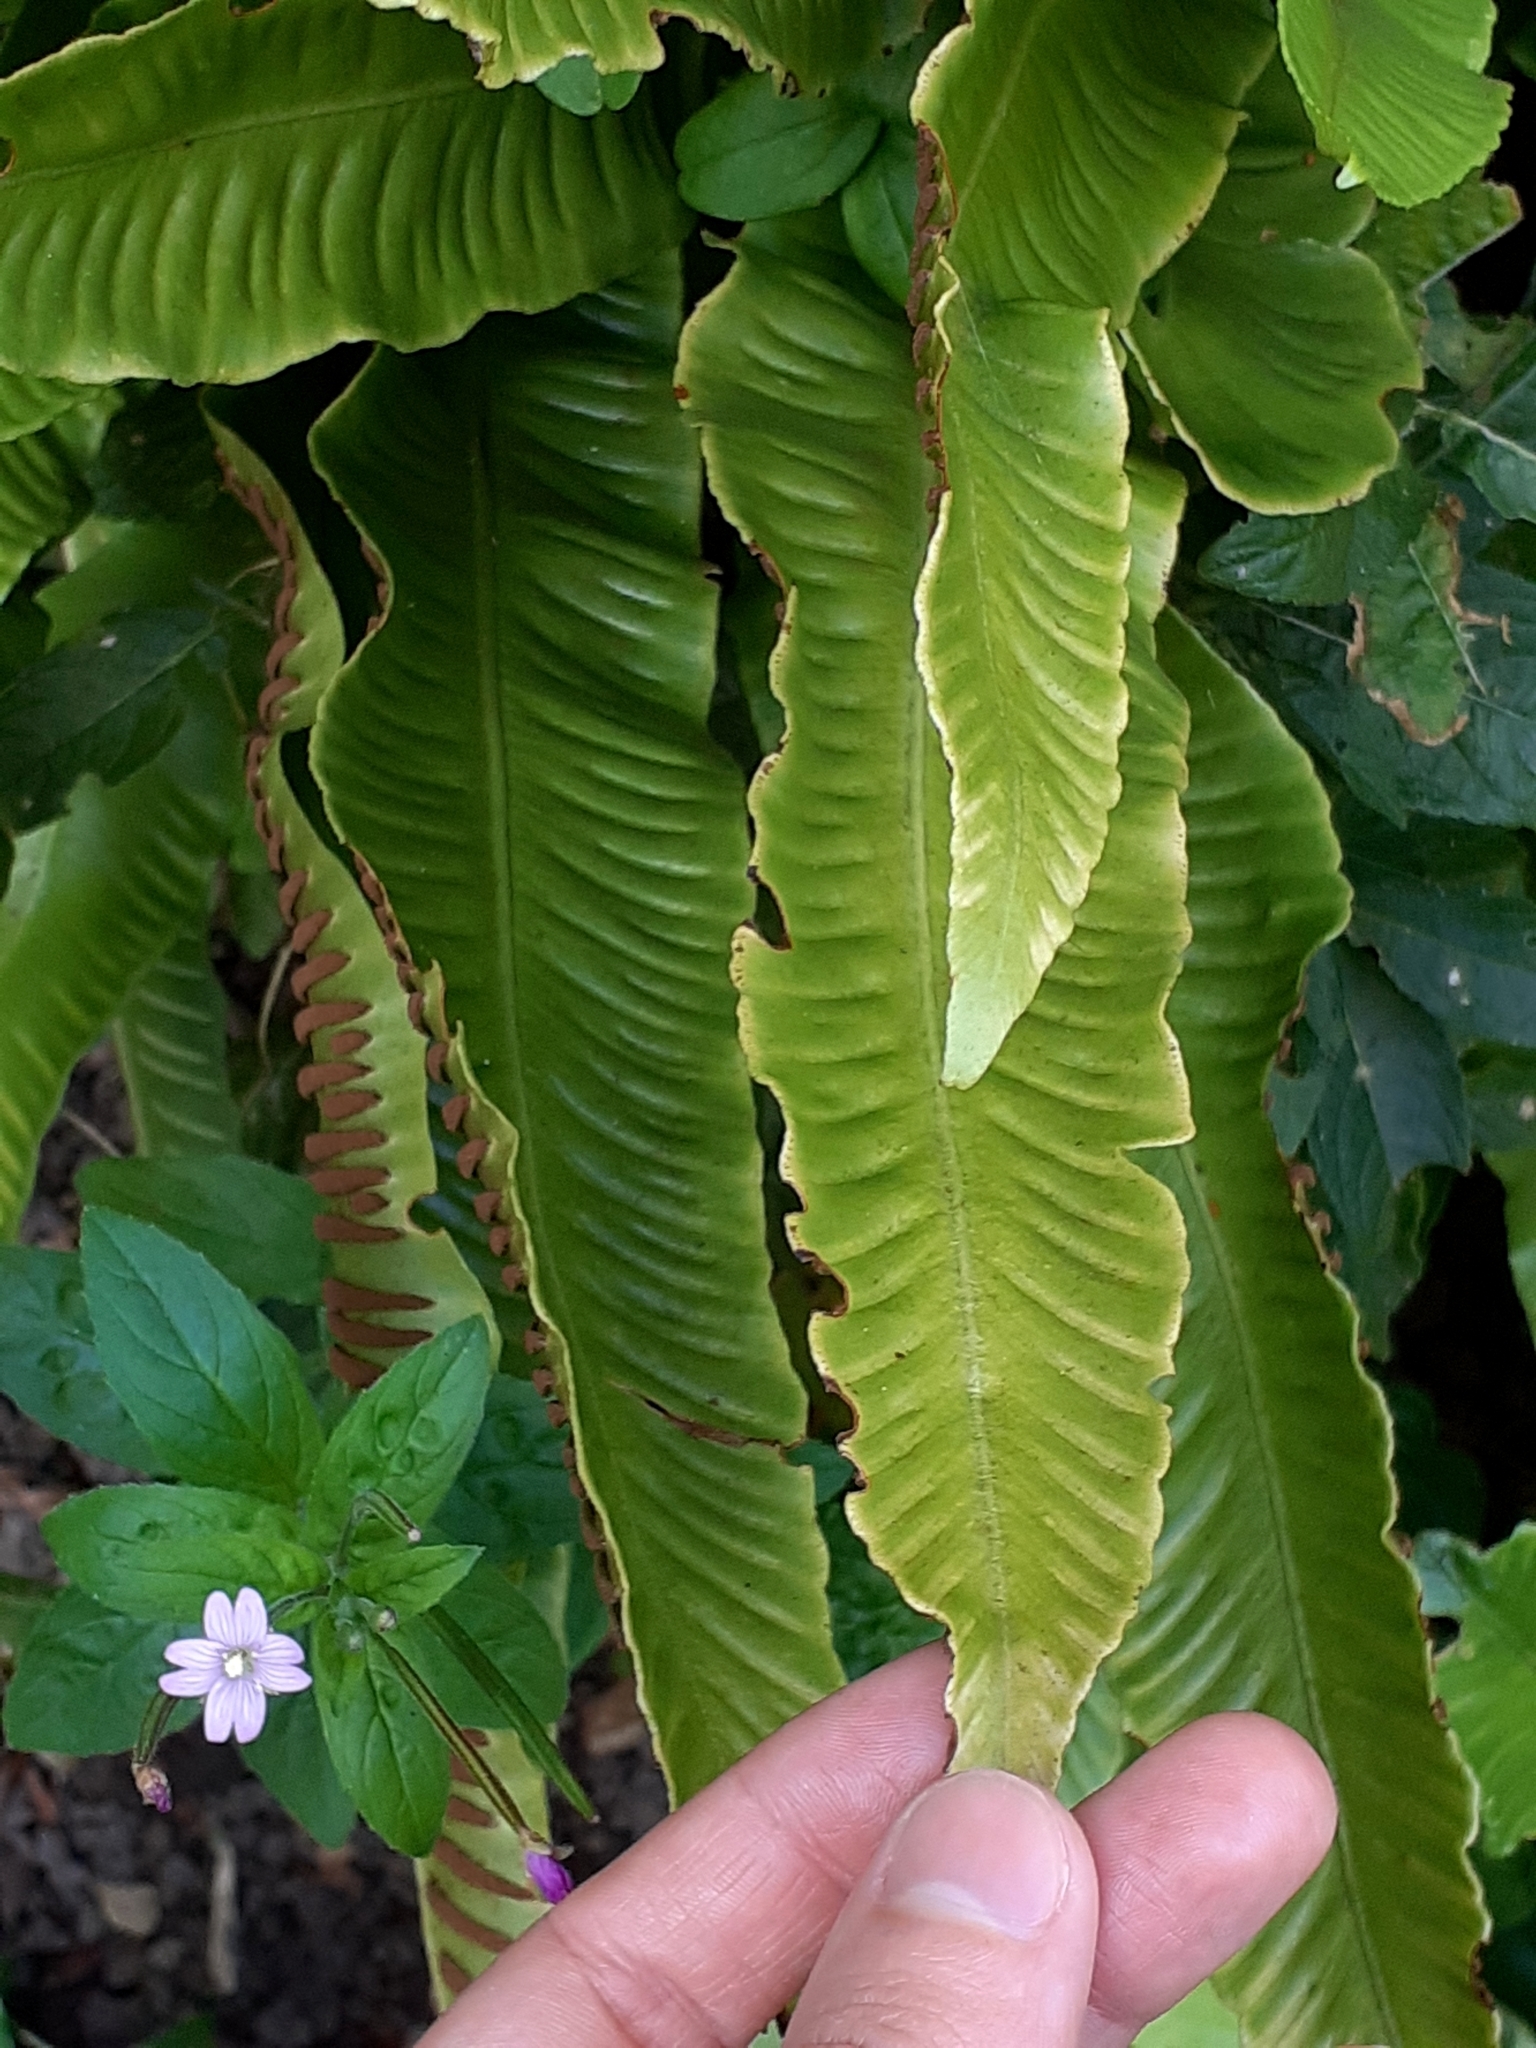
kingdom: Plantae
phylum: Tracheophyta
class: Polypodiopsida
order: Polypodiales
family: Aspleniaceae
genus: Asplenium
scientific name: Asplenium scolopendrium
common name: Hart's-tongue fern
